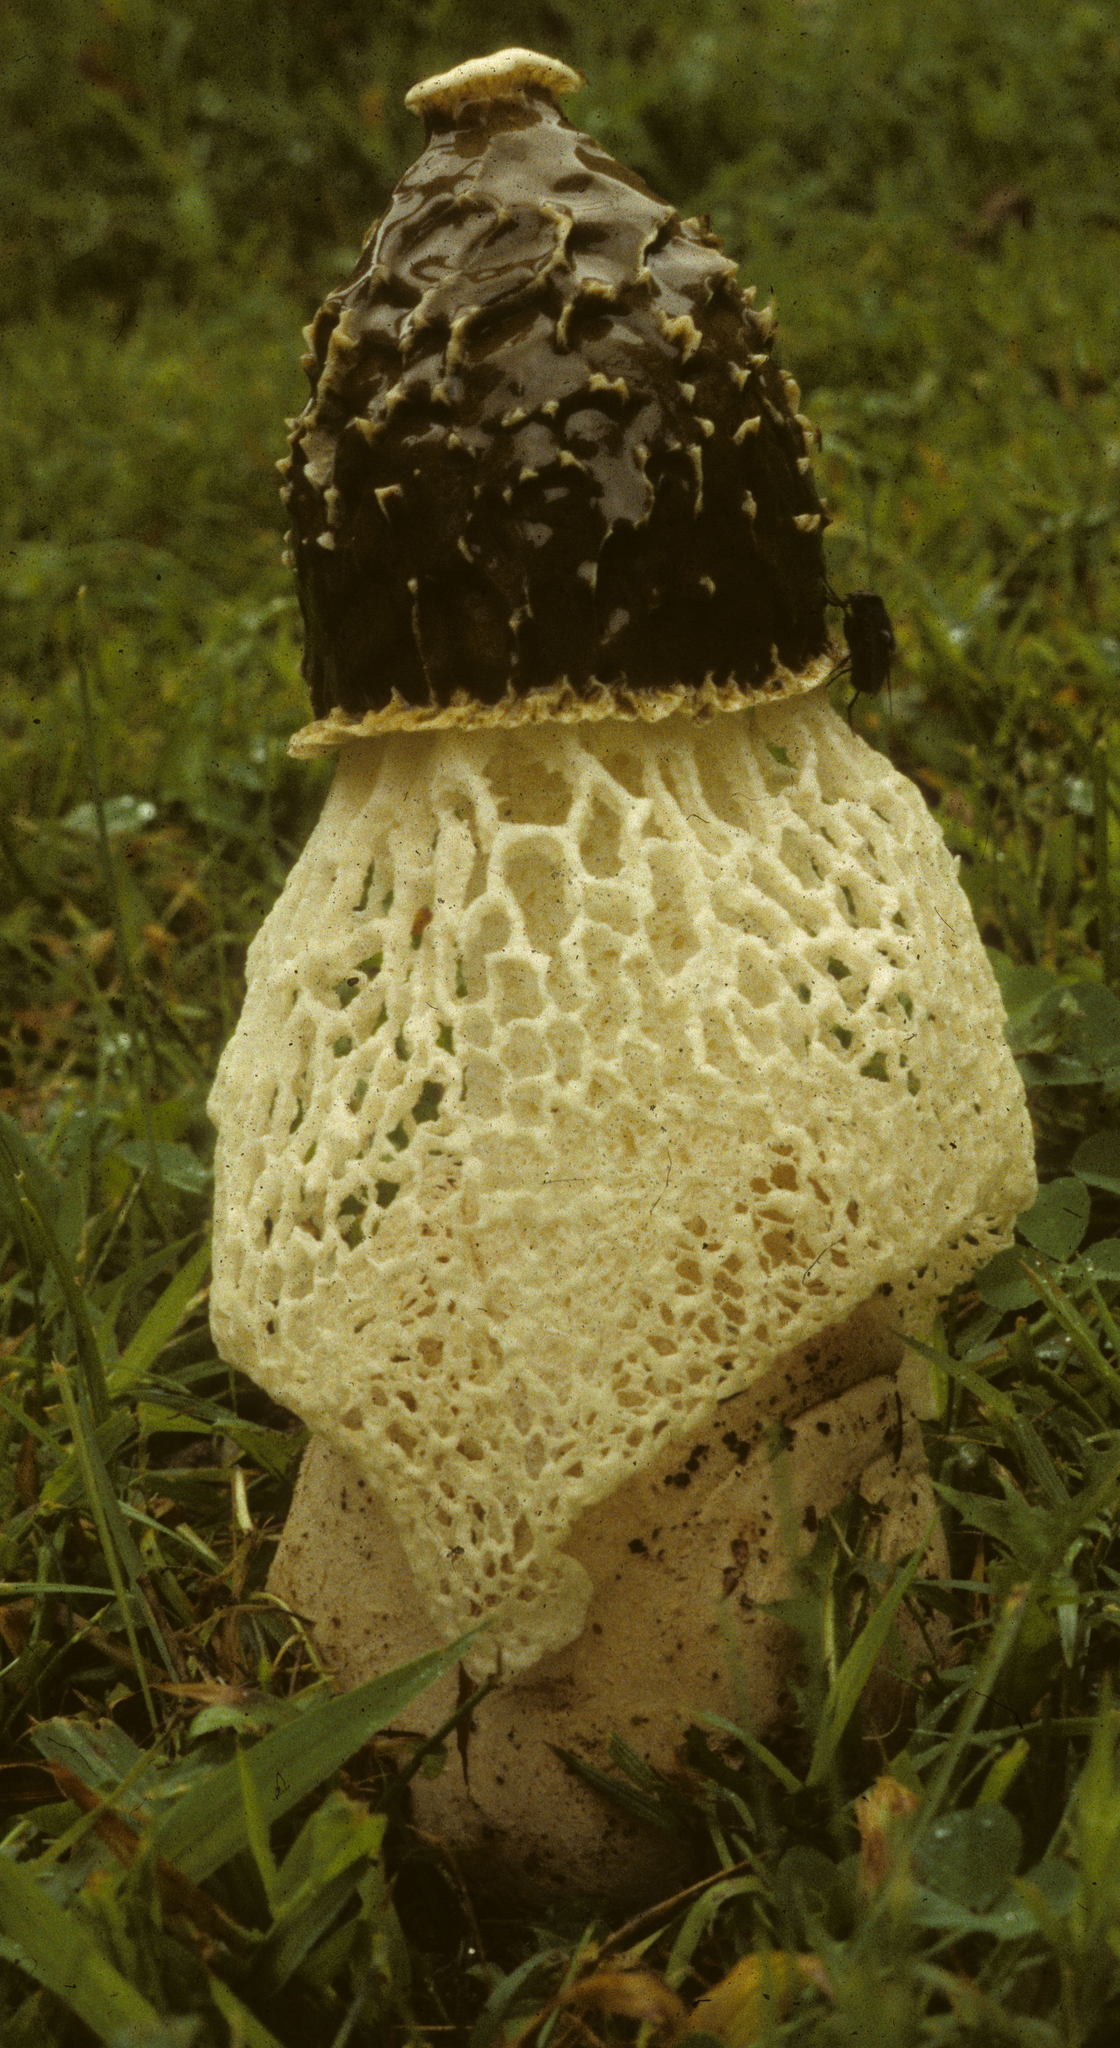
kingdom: Fungi
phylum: Basidiomycota
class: Agaricomycetes
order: Phallales
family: Phallaceae
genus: Phallus
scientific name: Phallus indusiatus
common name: Bridal veil stinkhorn
